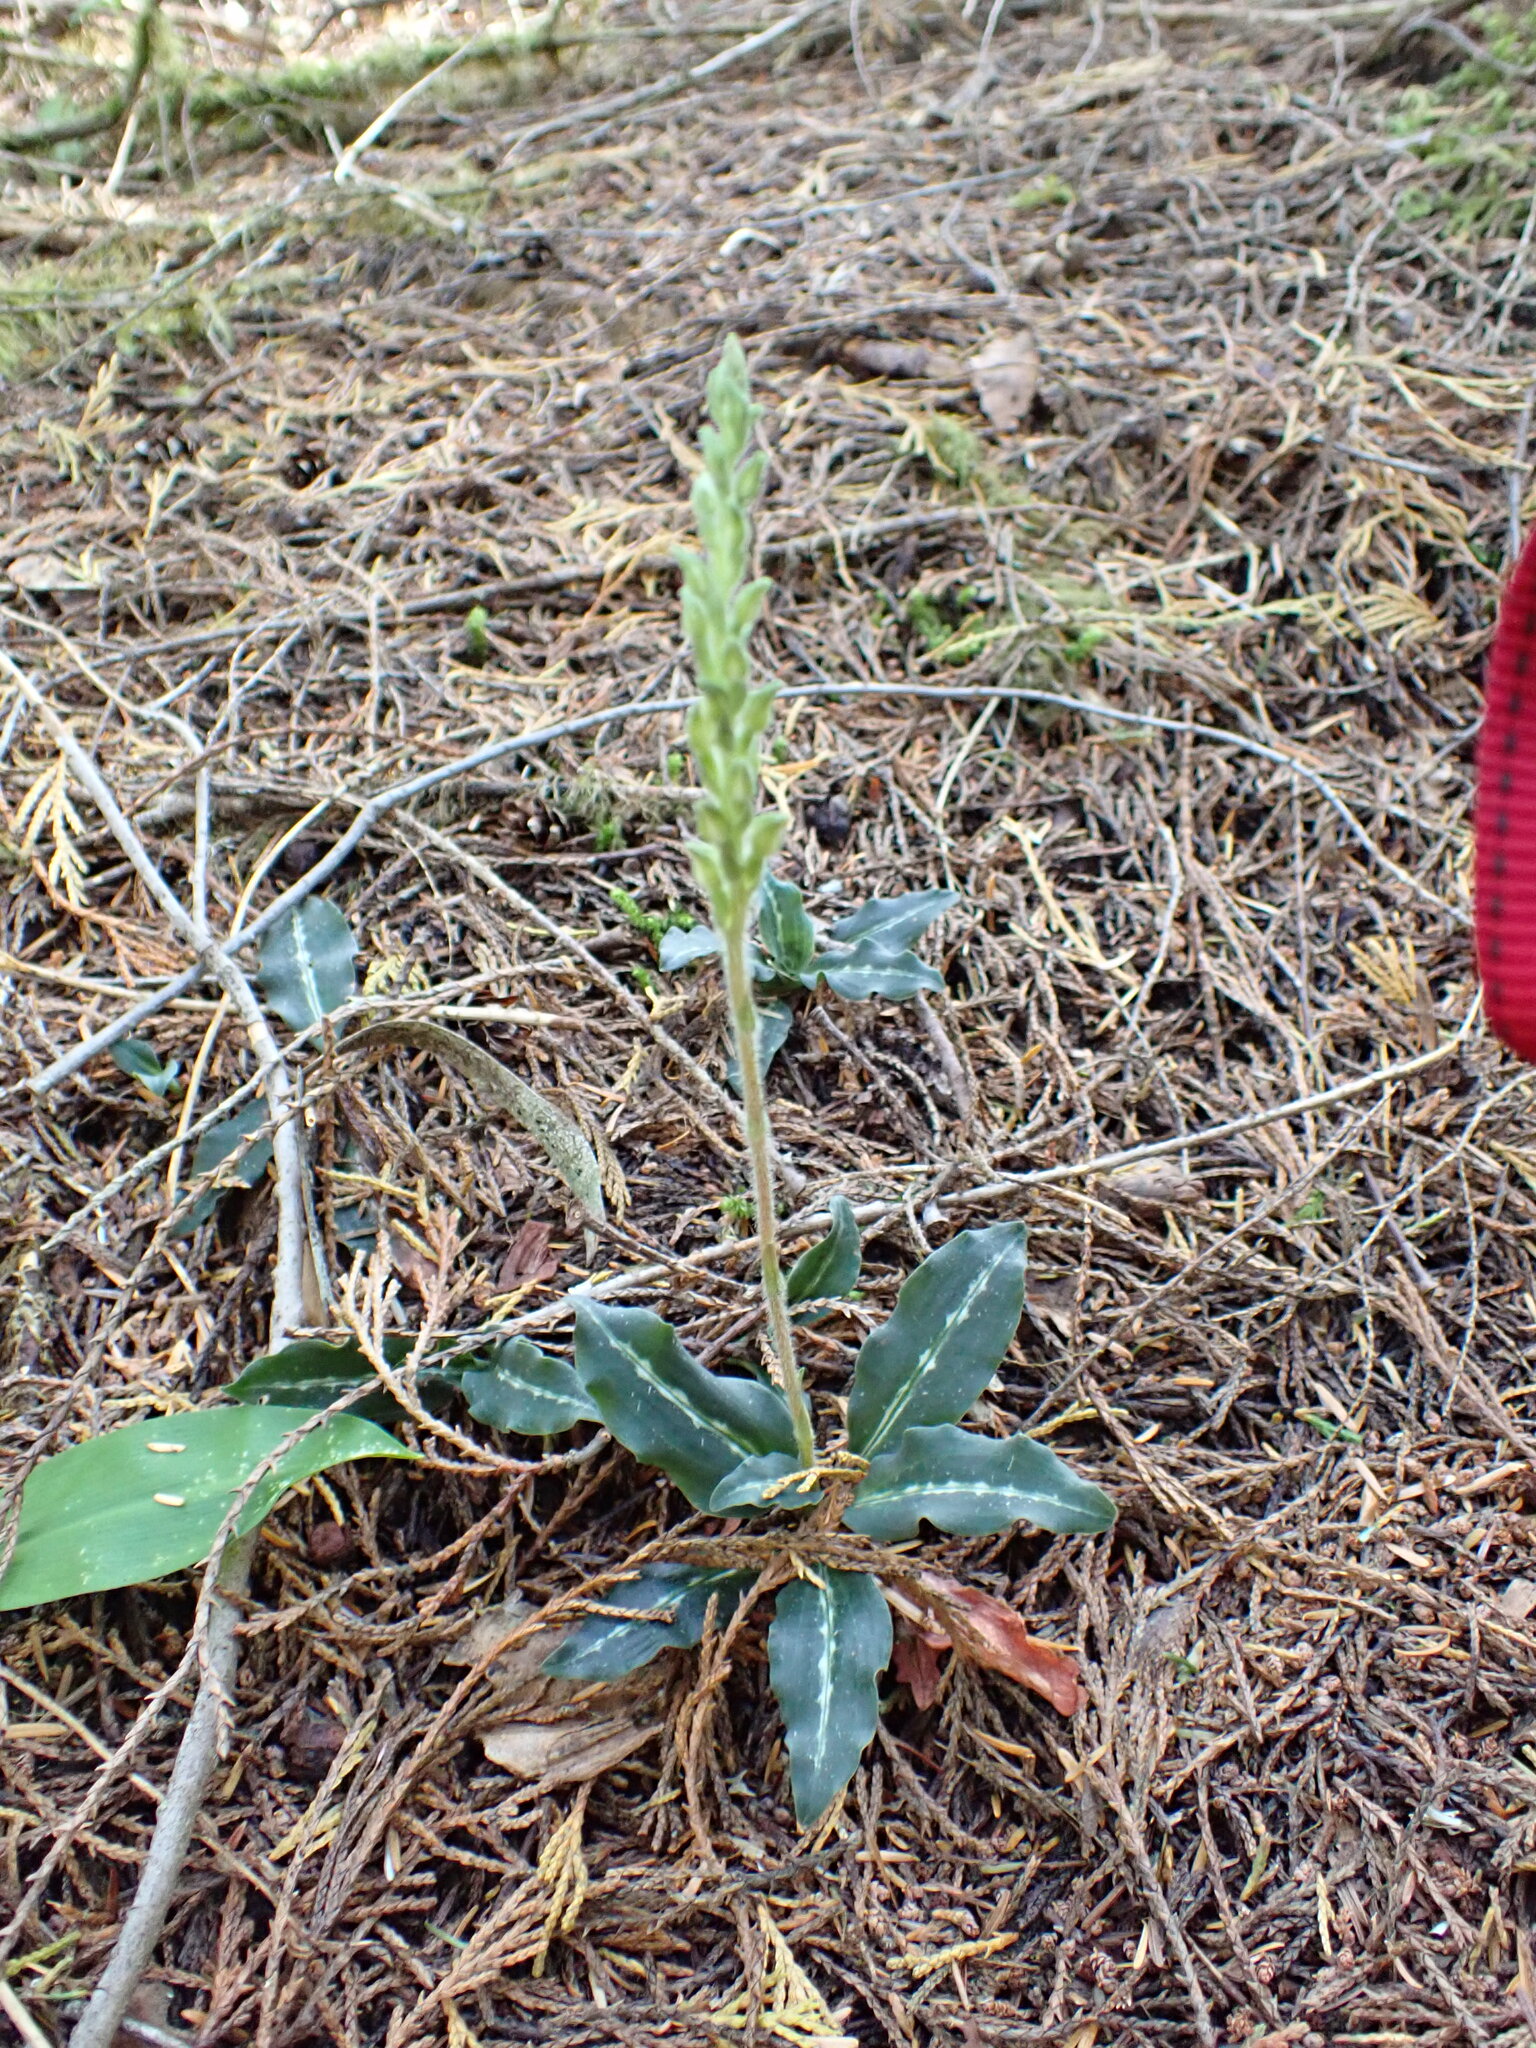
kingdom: Plantae
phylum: Tracheophyta
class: Liliopsida
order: Asparagales
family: Orchidaceae
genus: Goodyera
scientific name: Goodyera oblongifolia
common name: Giant rattlesnake-plantain
